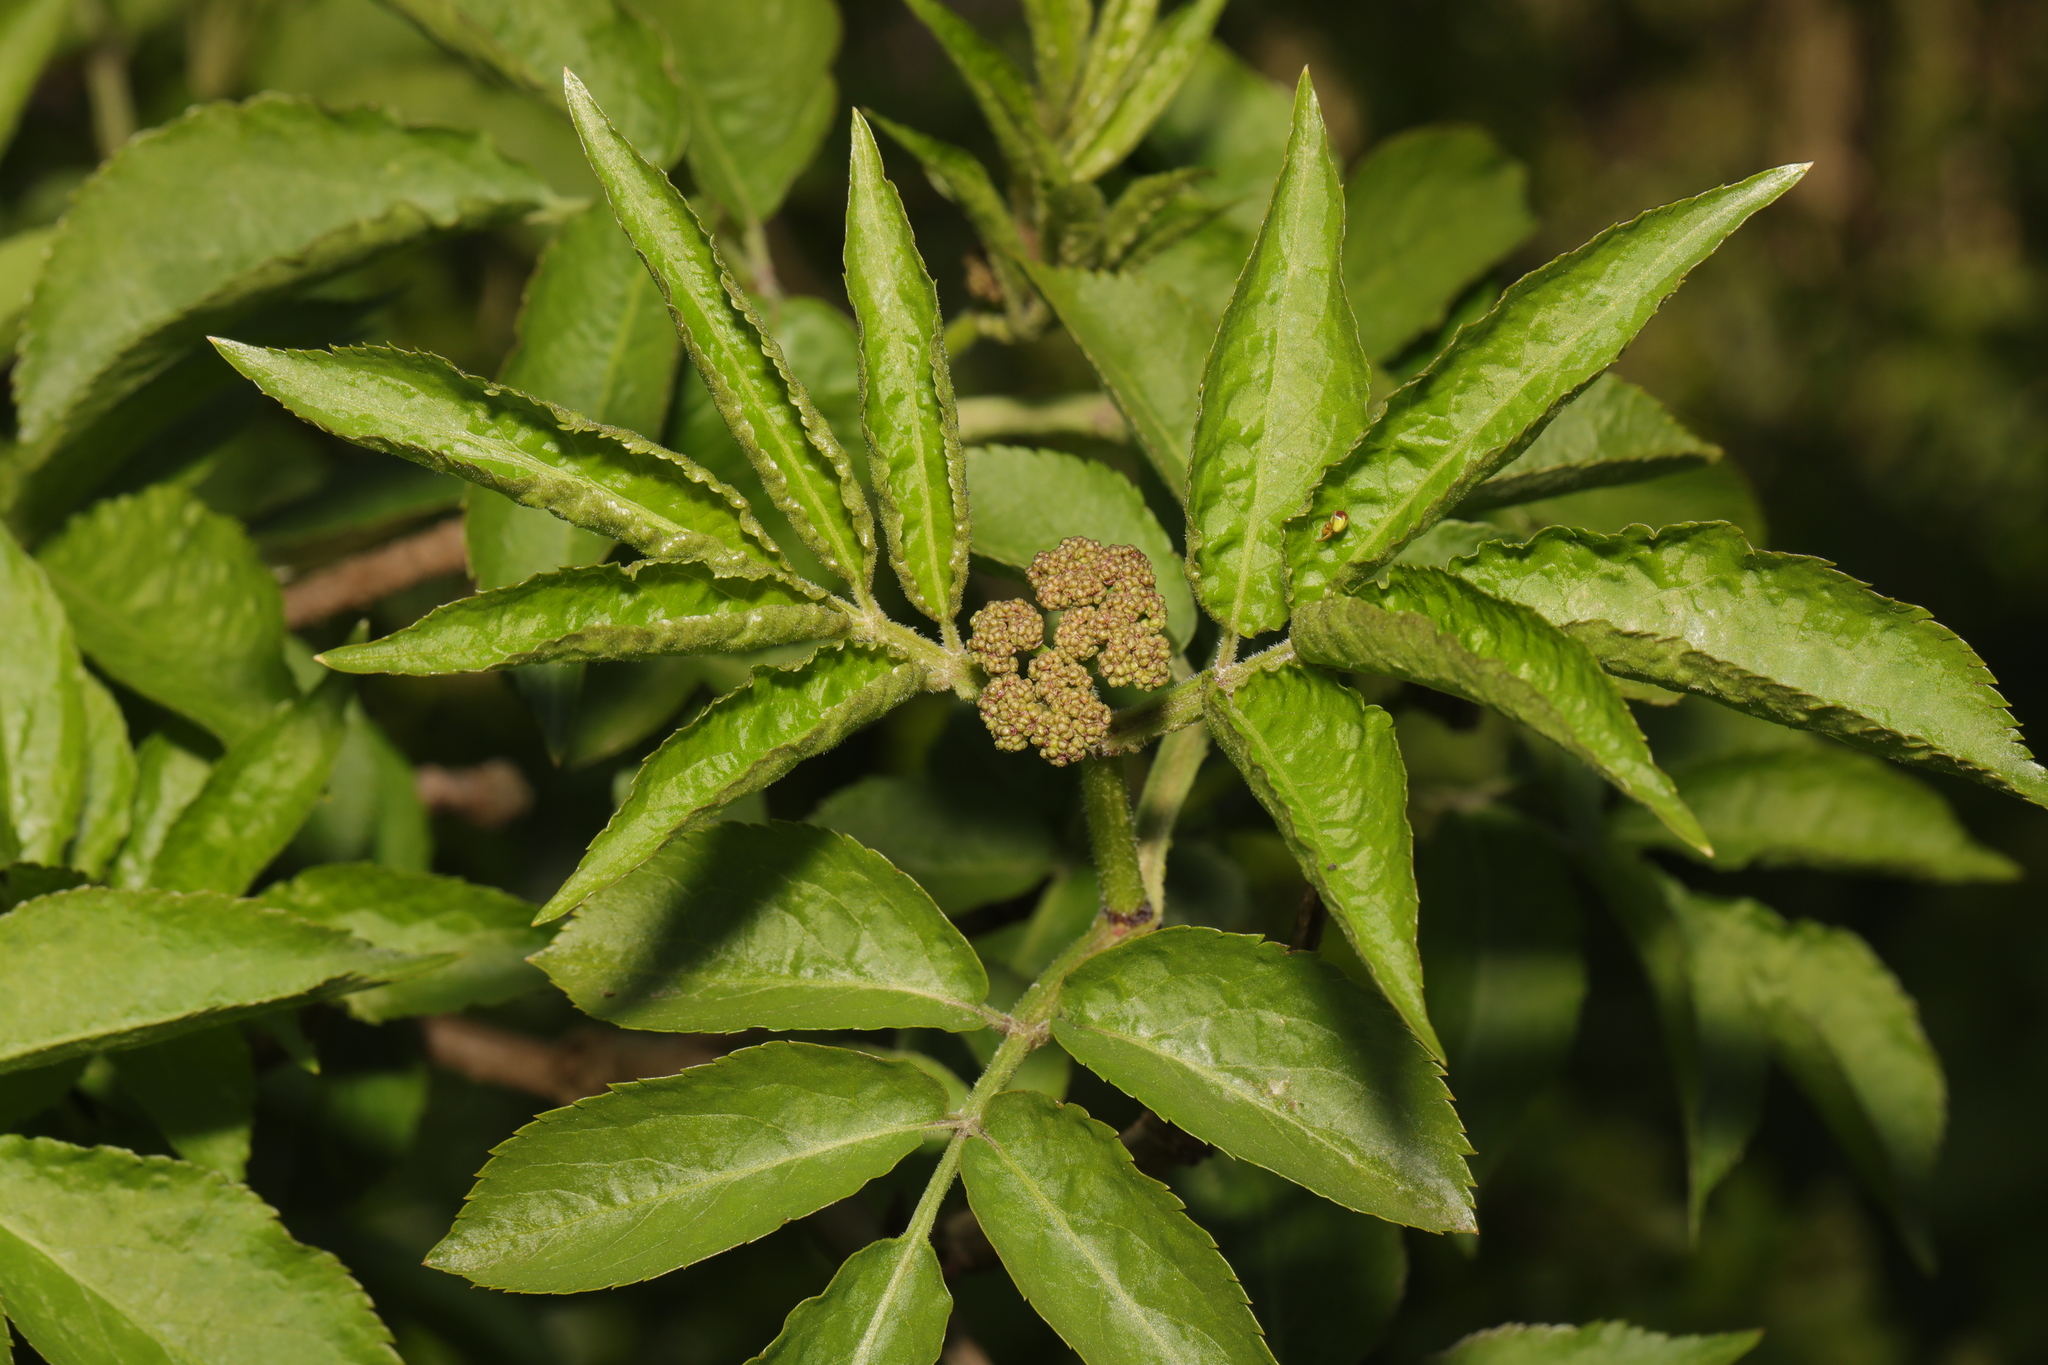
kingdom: Plantae
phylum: Tracheophyta
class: Magnoliopsida
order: Dipsacales
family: Viburnaceae
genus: Sambucus
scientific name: Sambucus nigra
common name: Elder
